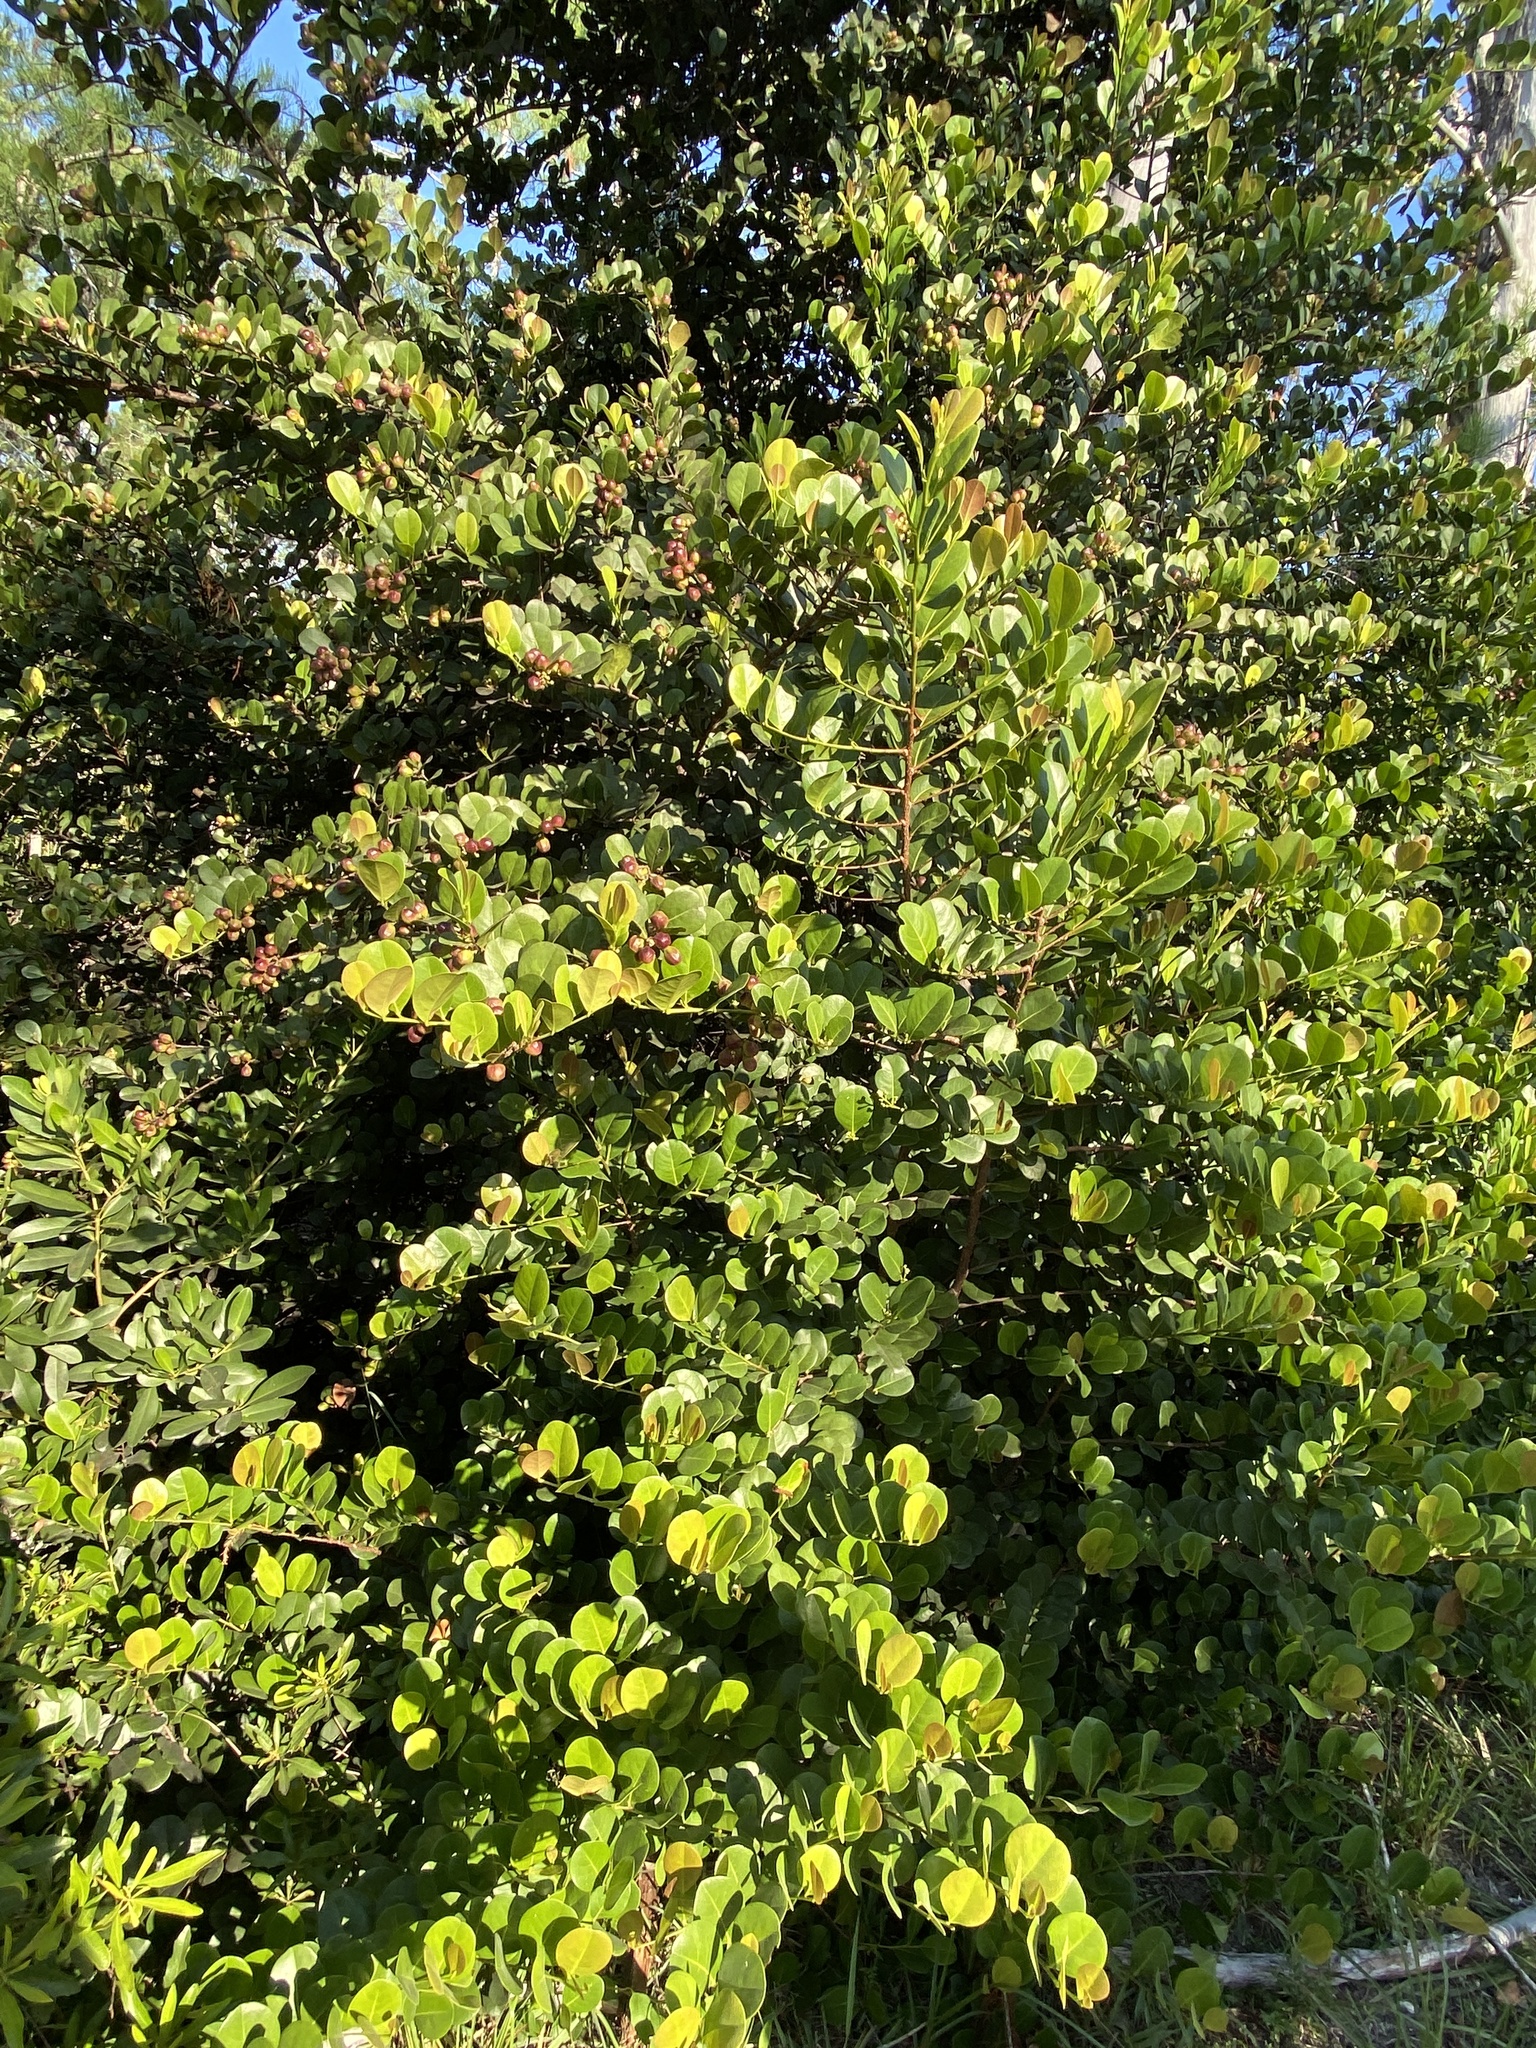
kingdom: Plantae
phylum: Tracheophyta
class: Magnoliopsida
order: Malpighiales
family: Chrysobalanaceae
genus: Chrysobalanus
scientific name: Chrysobalanus icaco
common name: Coco plum
